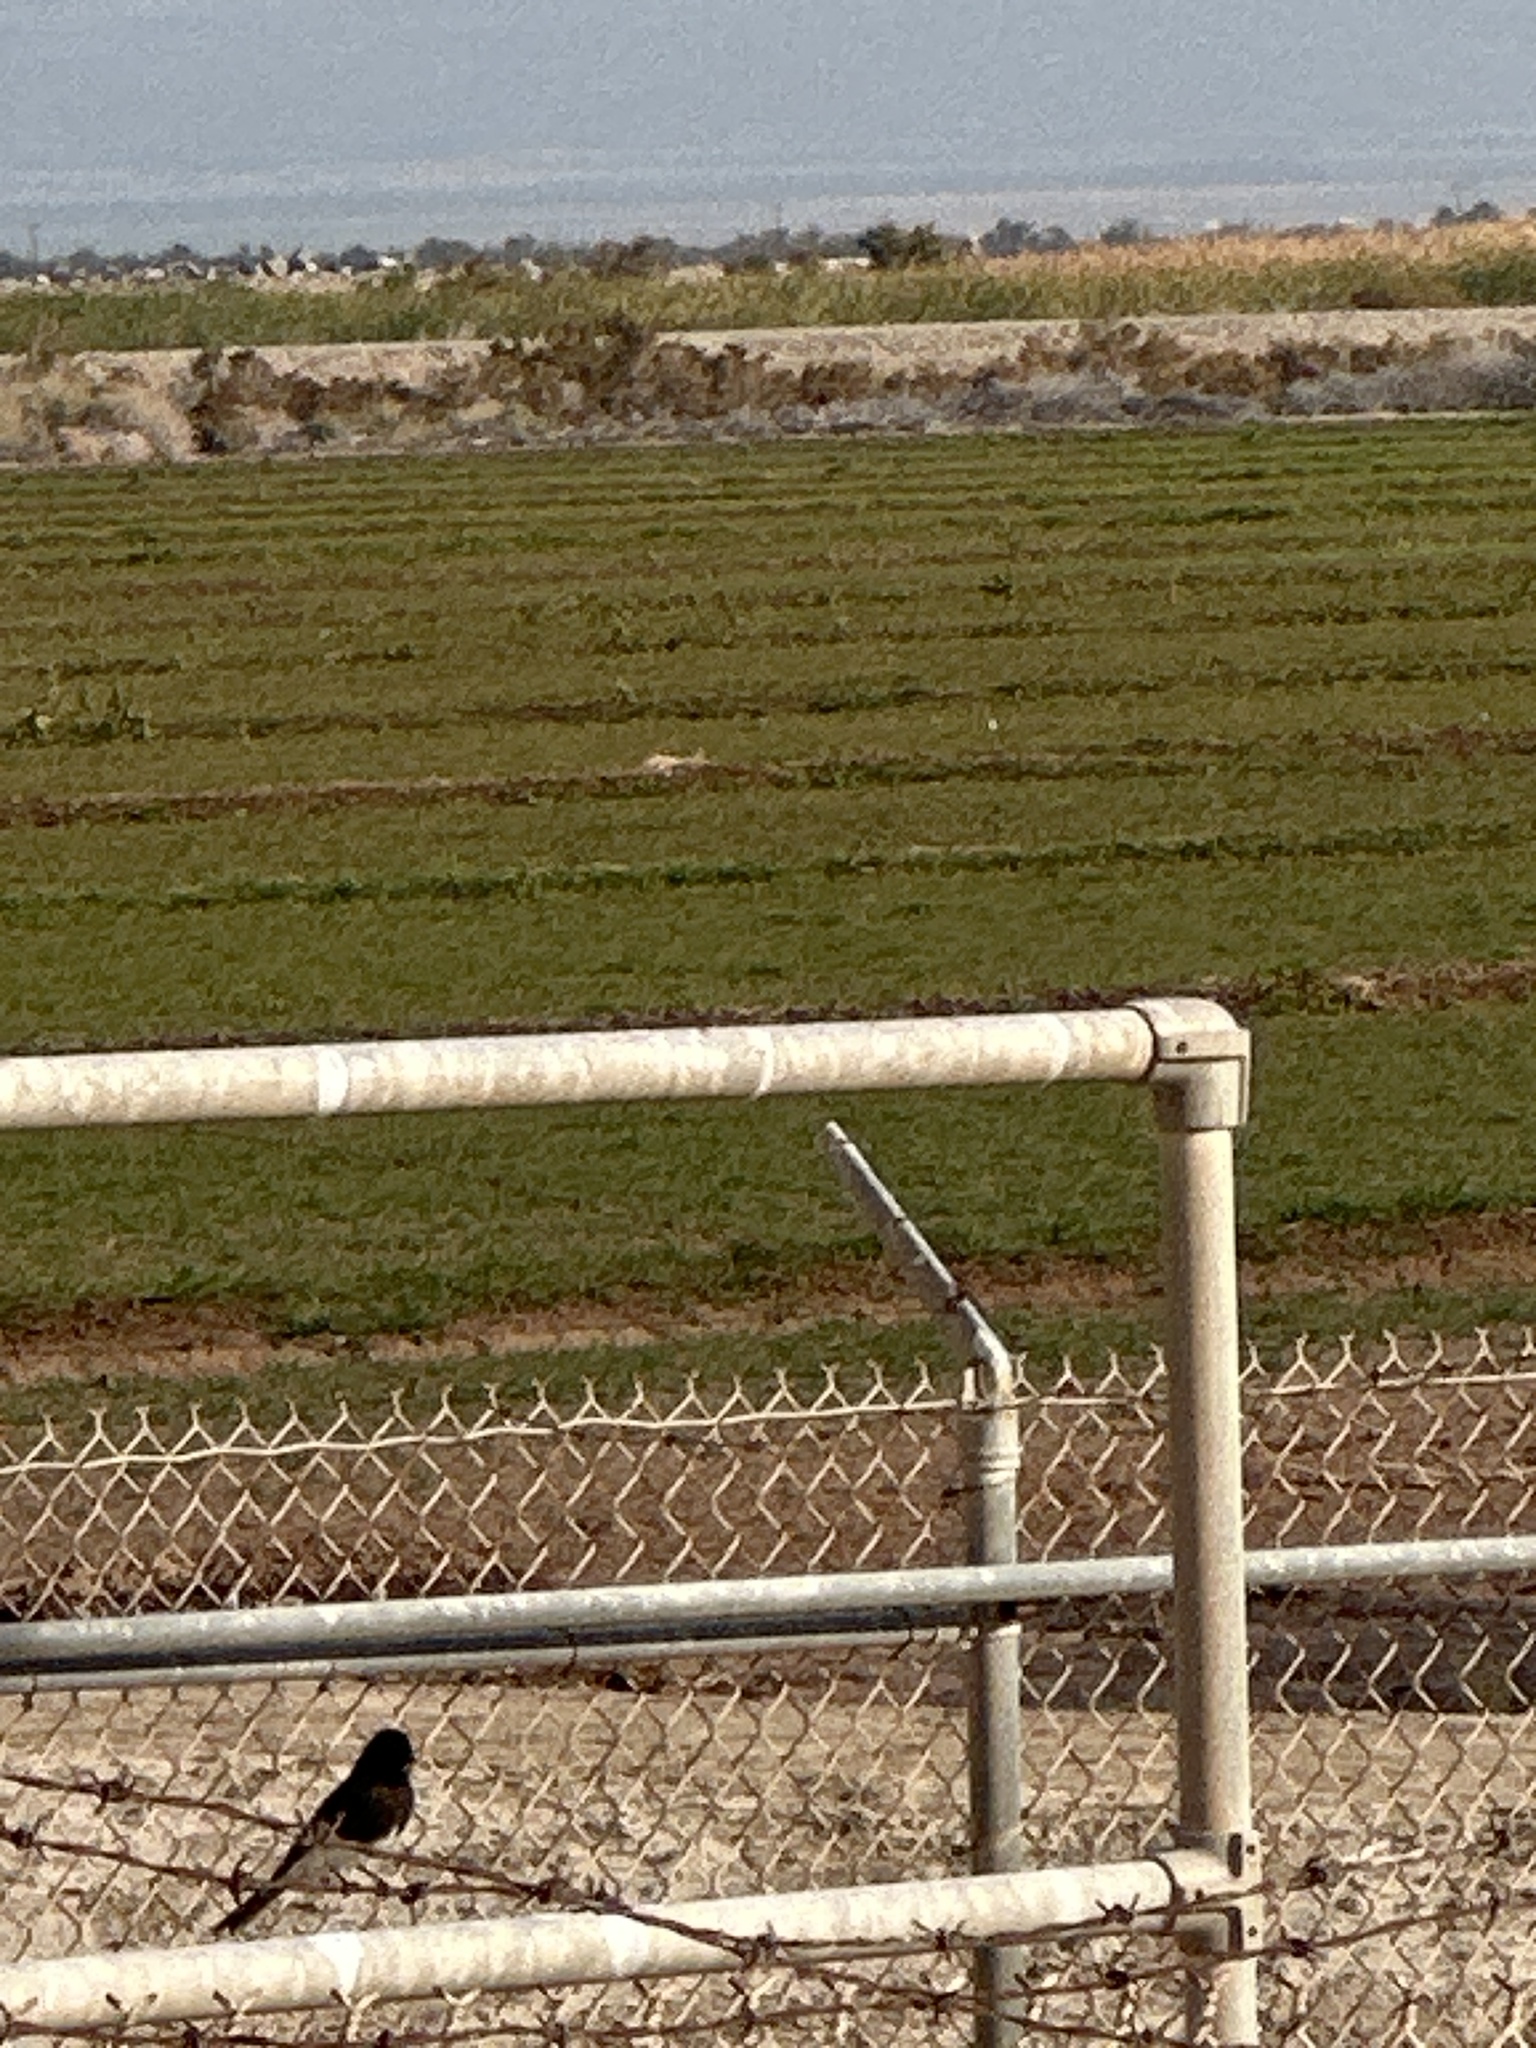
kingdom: Animalia
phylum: Chordata
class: Aves
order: Passeriformes
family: Tyrannidae
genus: Sayornis
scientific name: Sayornis nigricans
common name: Black phoebe
